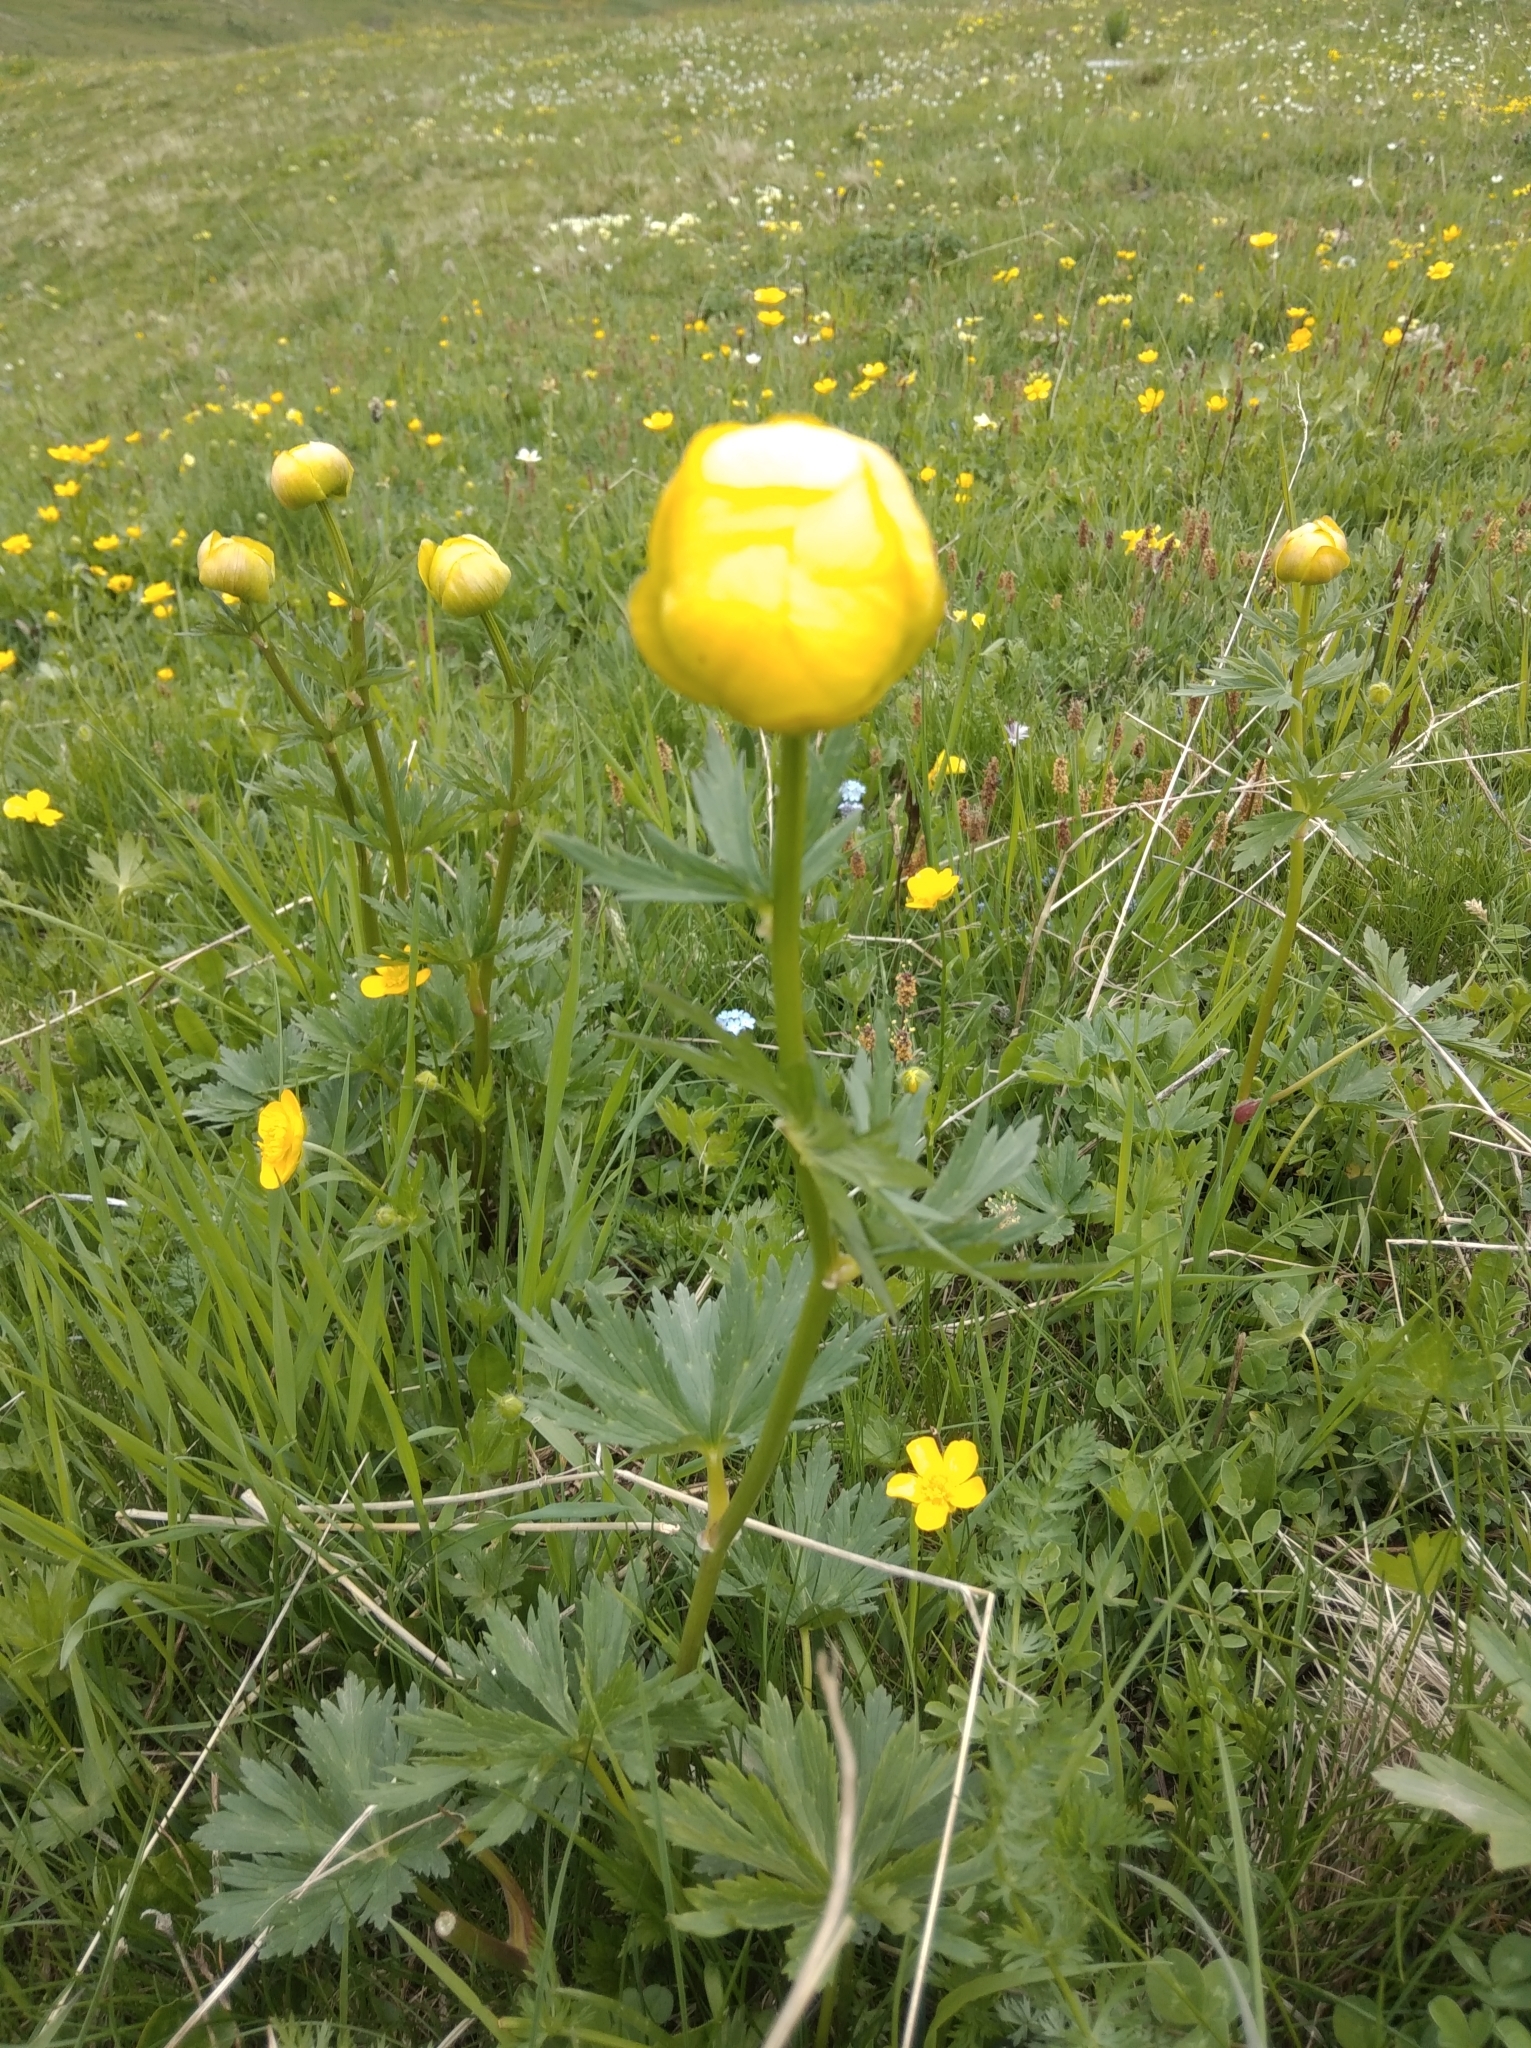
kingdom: Plantae
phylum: Tracheophyta
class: Magnoliopsida
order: Ranunculales
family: Ranunculaceae
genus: Trollius
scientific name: Trollius europaeus
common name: European globeflower
